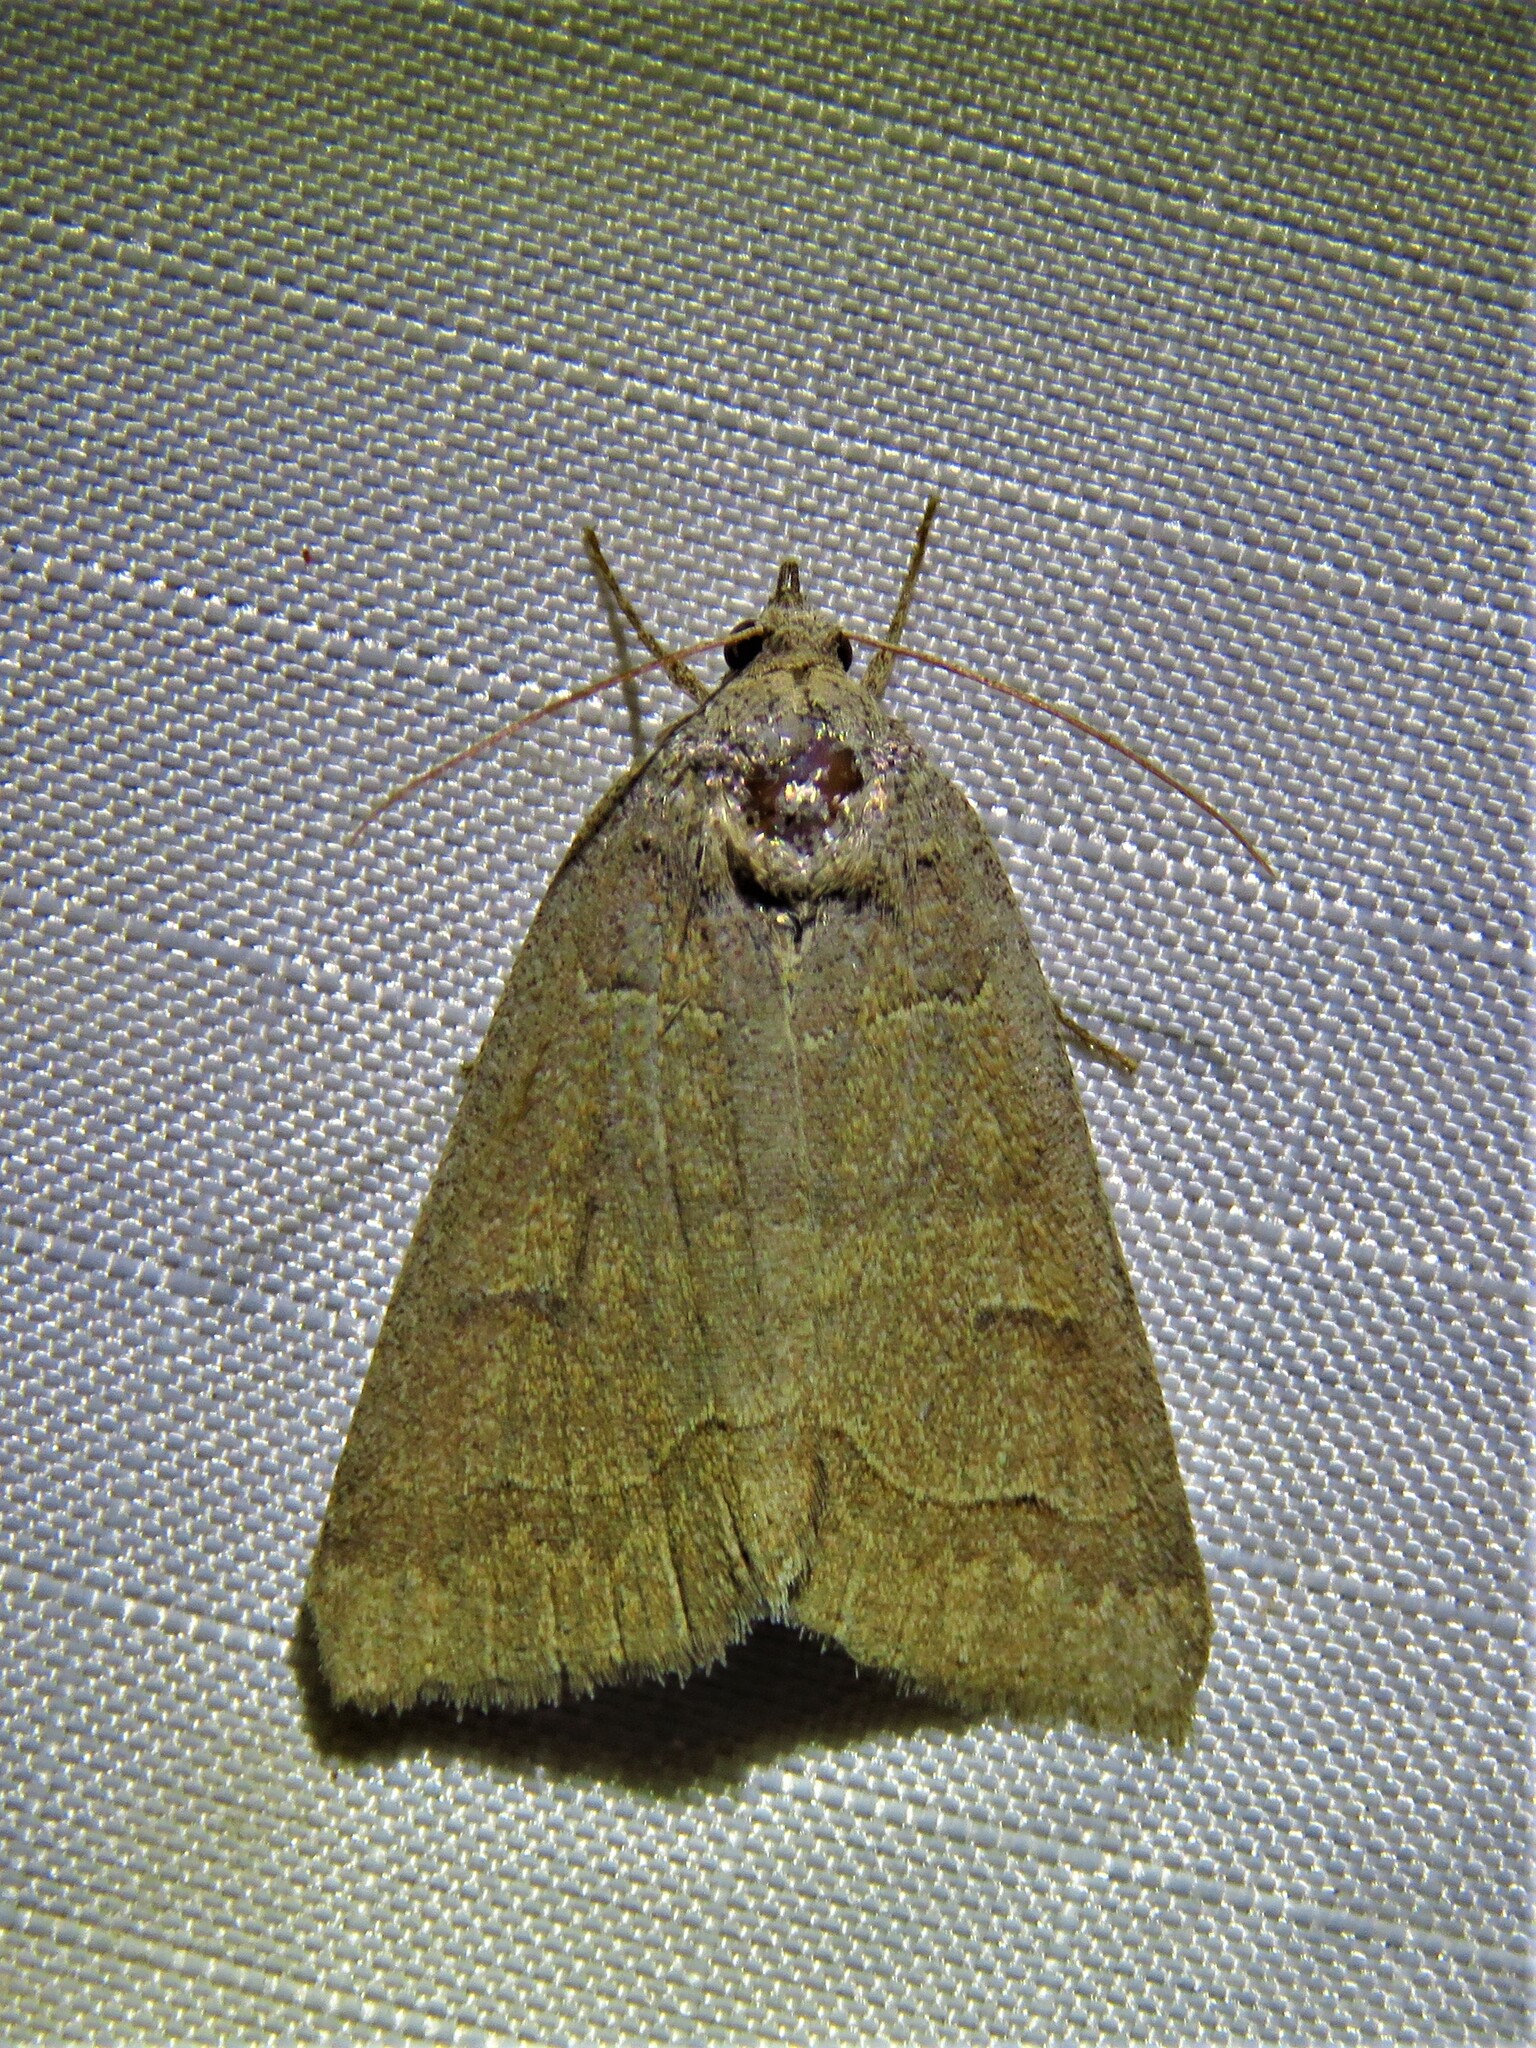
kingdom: Animalia
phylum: Arthropoda
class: Insecta
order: Lepidoptera
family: Erebidae
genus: Phoberia
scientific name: Phoberia atomaris
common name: Common oak moth
